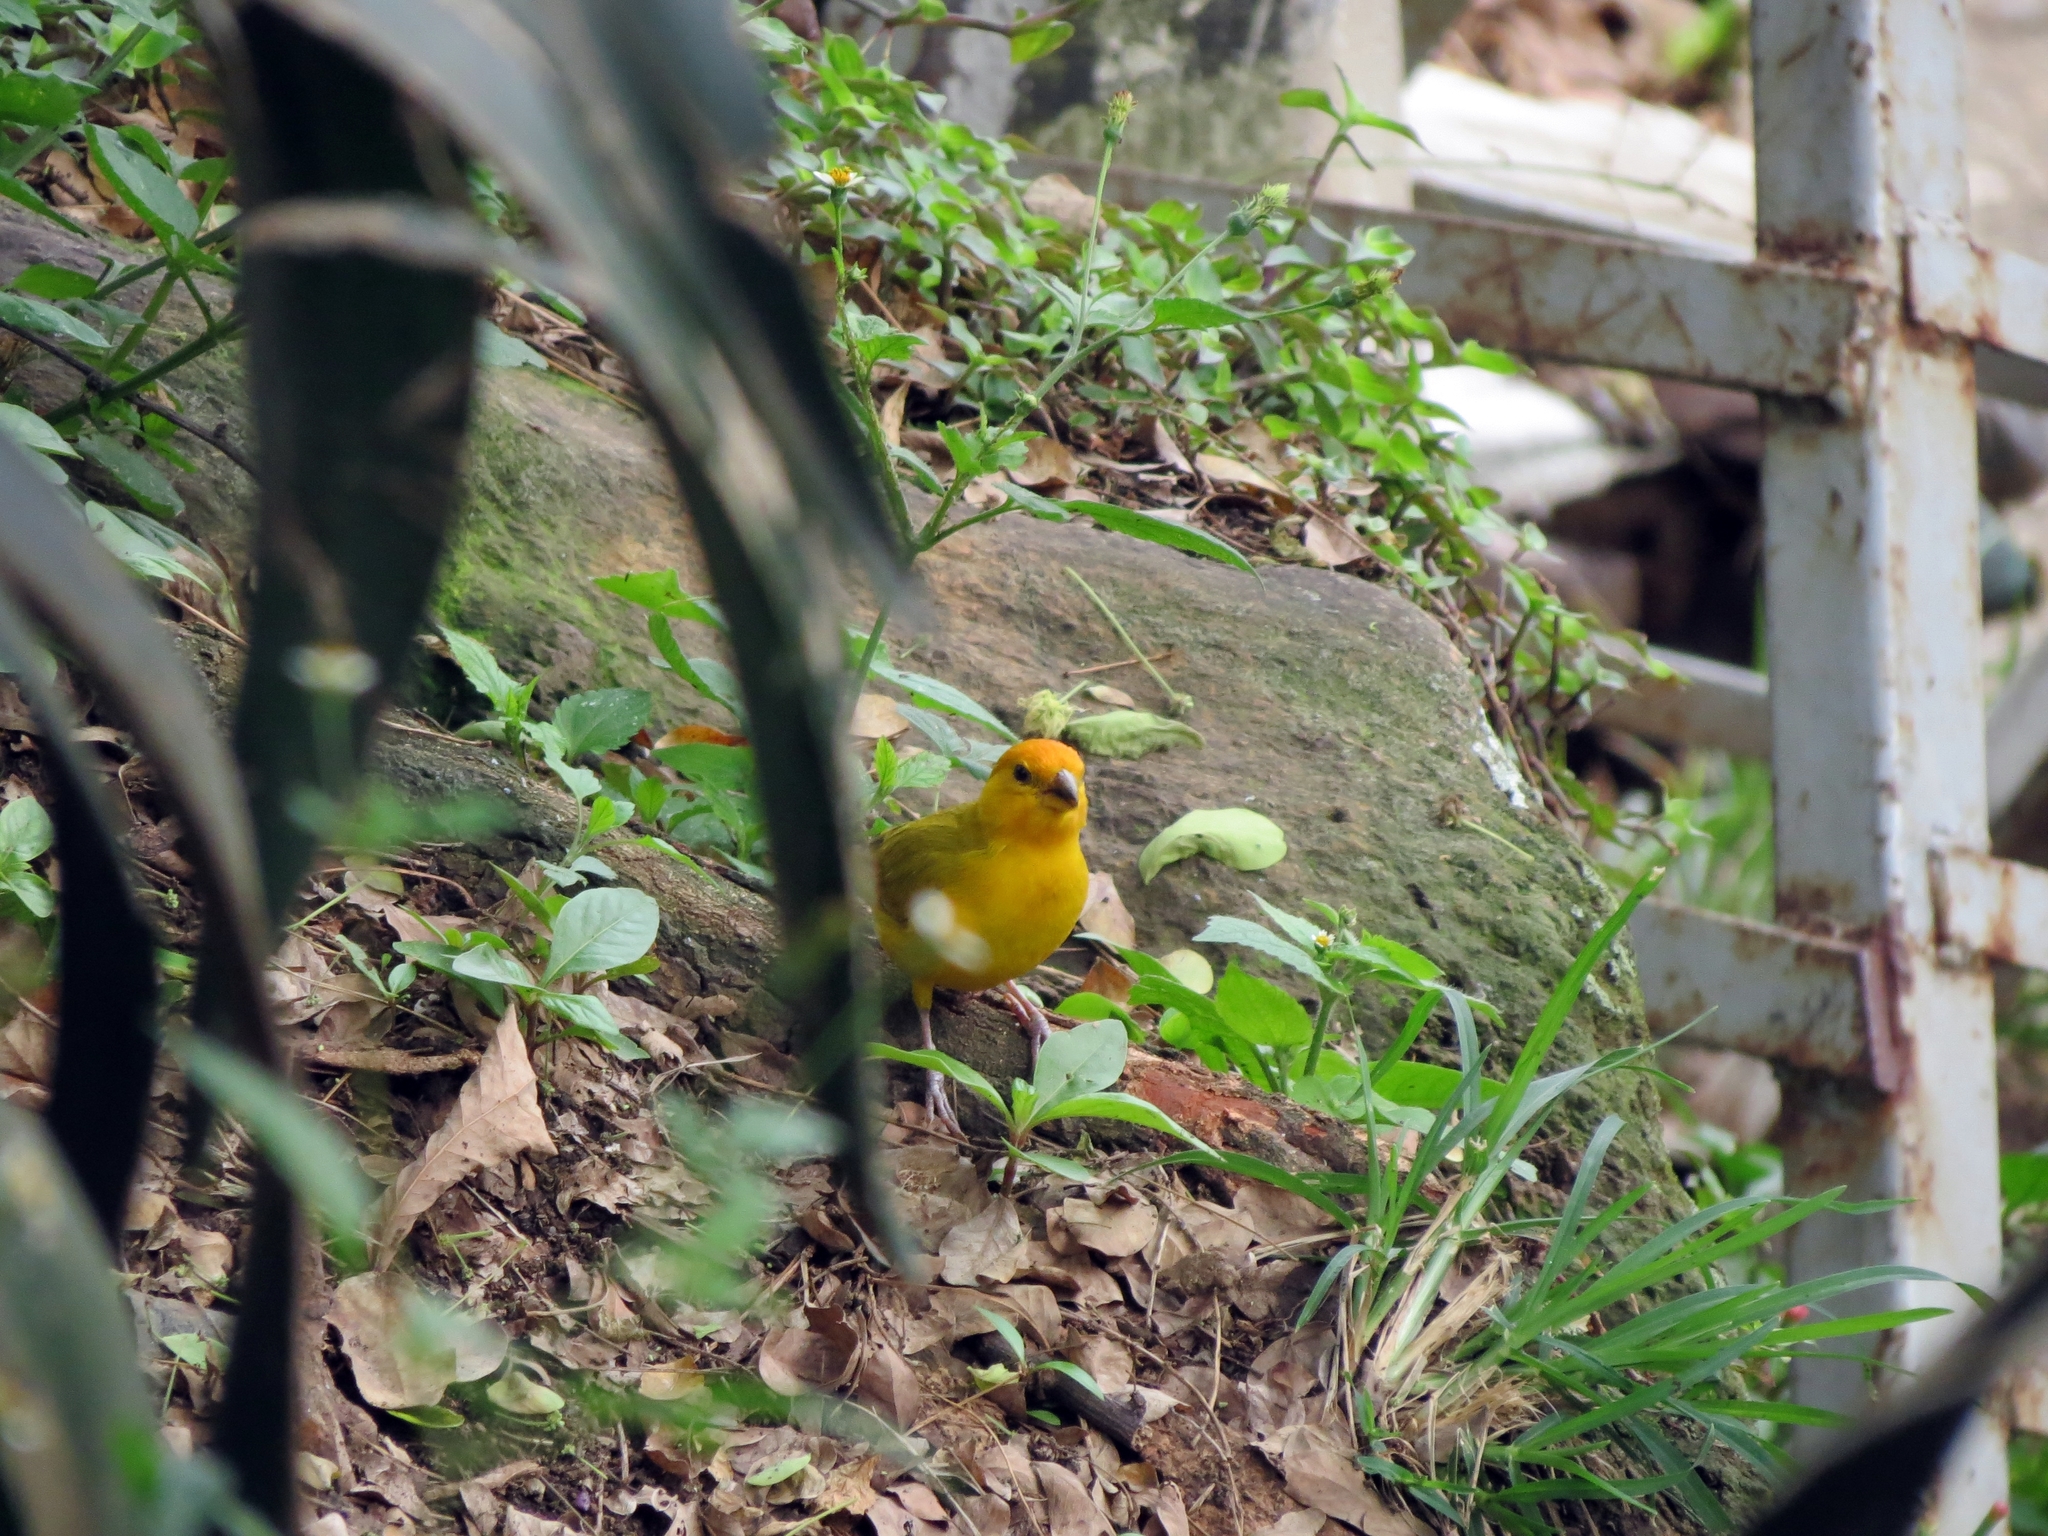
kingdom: Animalia
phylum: Chordata
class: Aves
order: Passeriformes
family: Thraupidae
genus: Sicalis
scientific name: Sicalis flaveola
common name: Saffron finch
